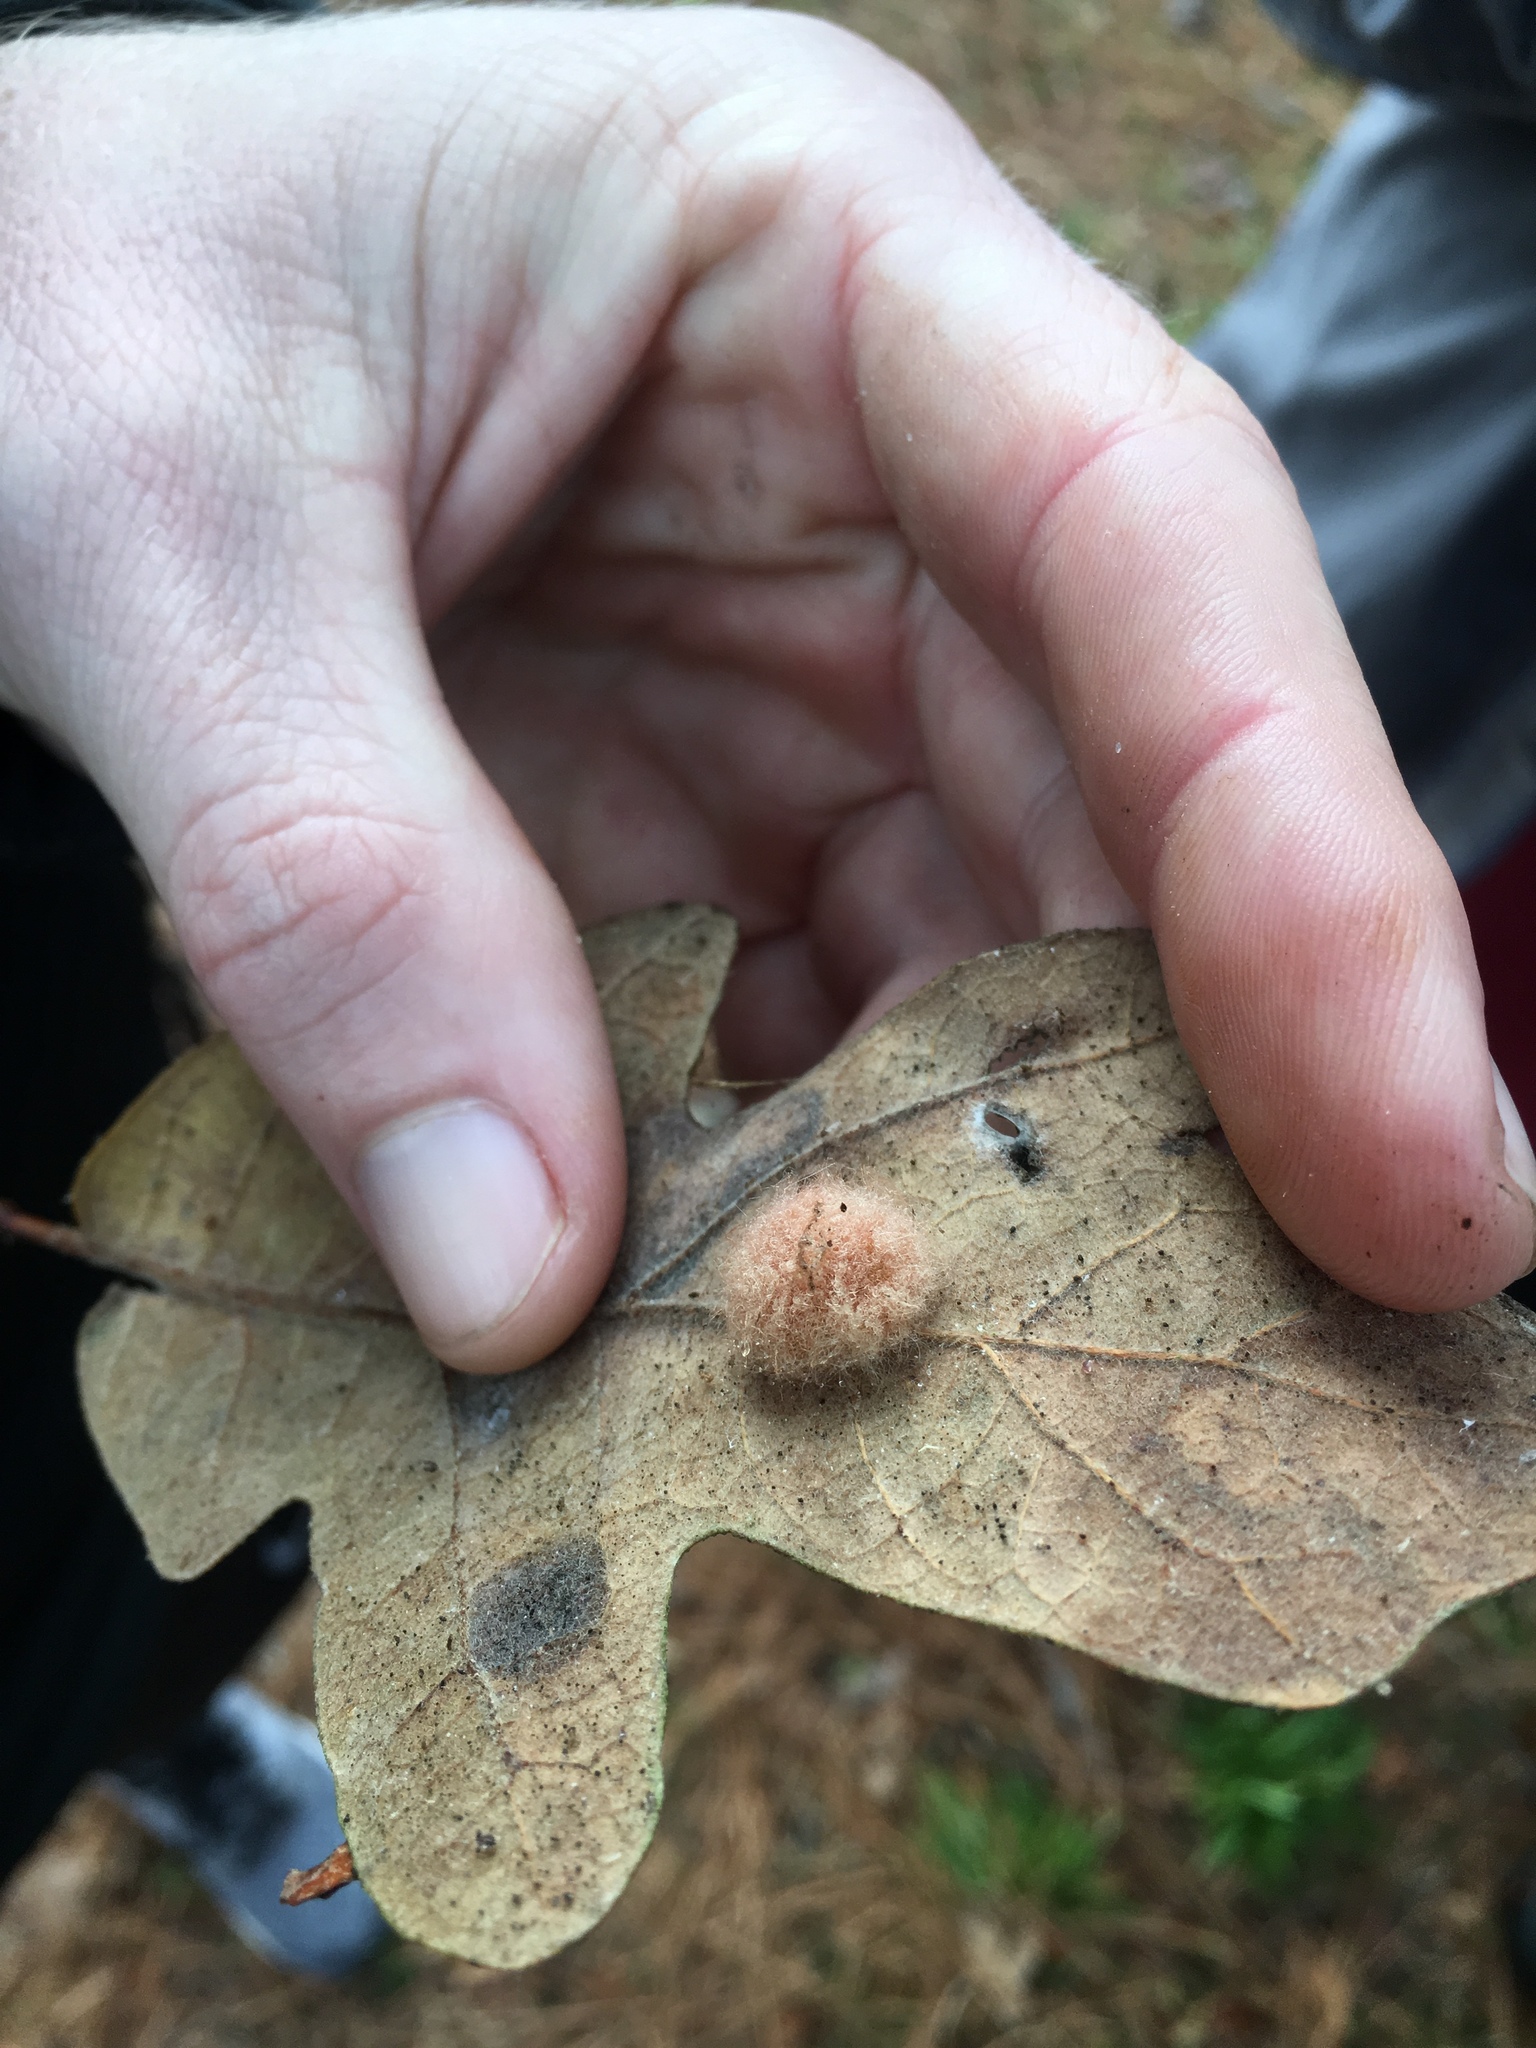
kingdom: Animalia
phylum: Arthropoda
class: Insecta
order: Hymenoptera
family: Cynipidae
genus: Andricus
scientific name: Andricus Druon pattoni
